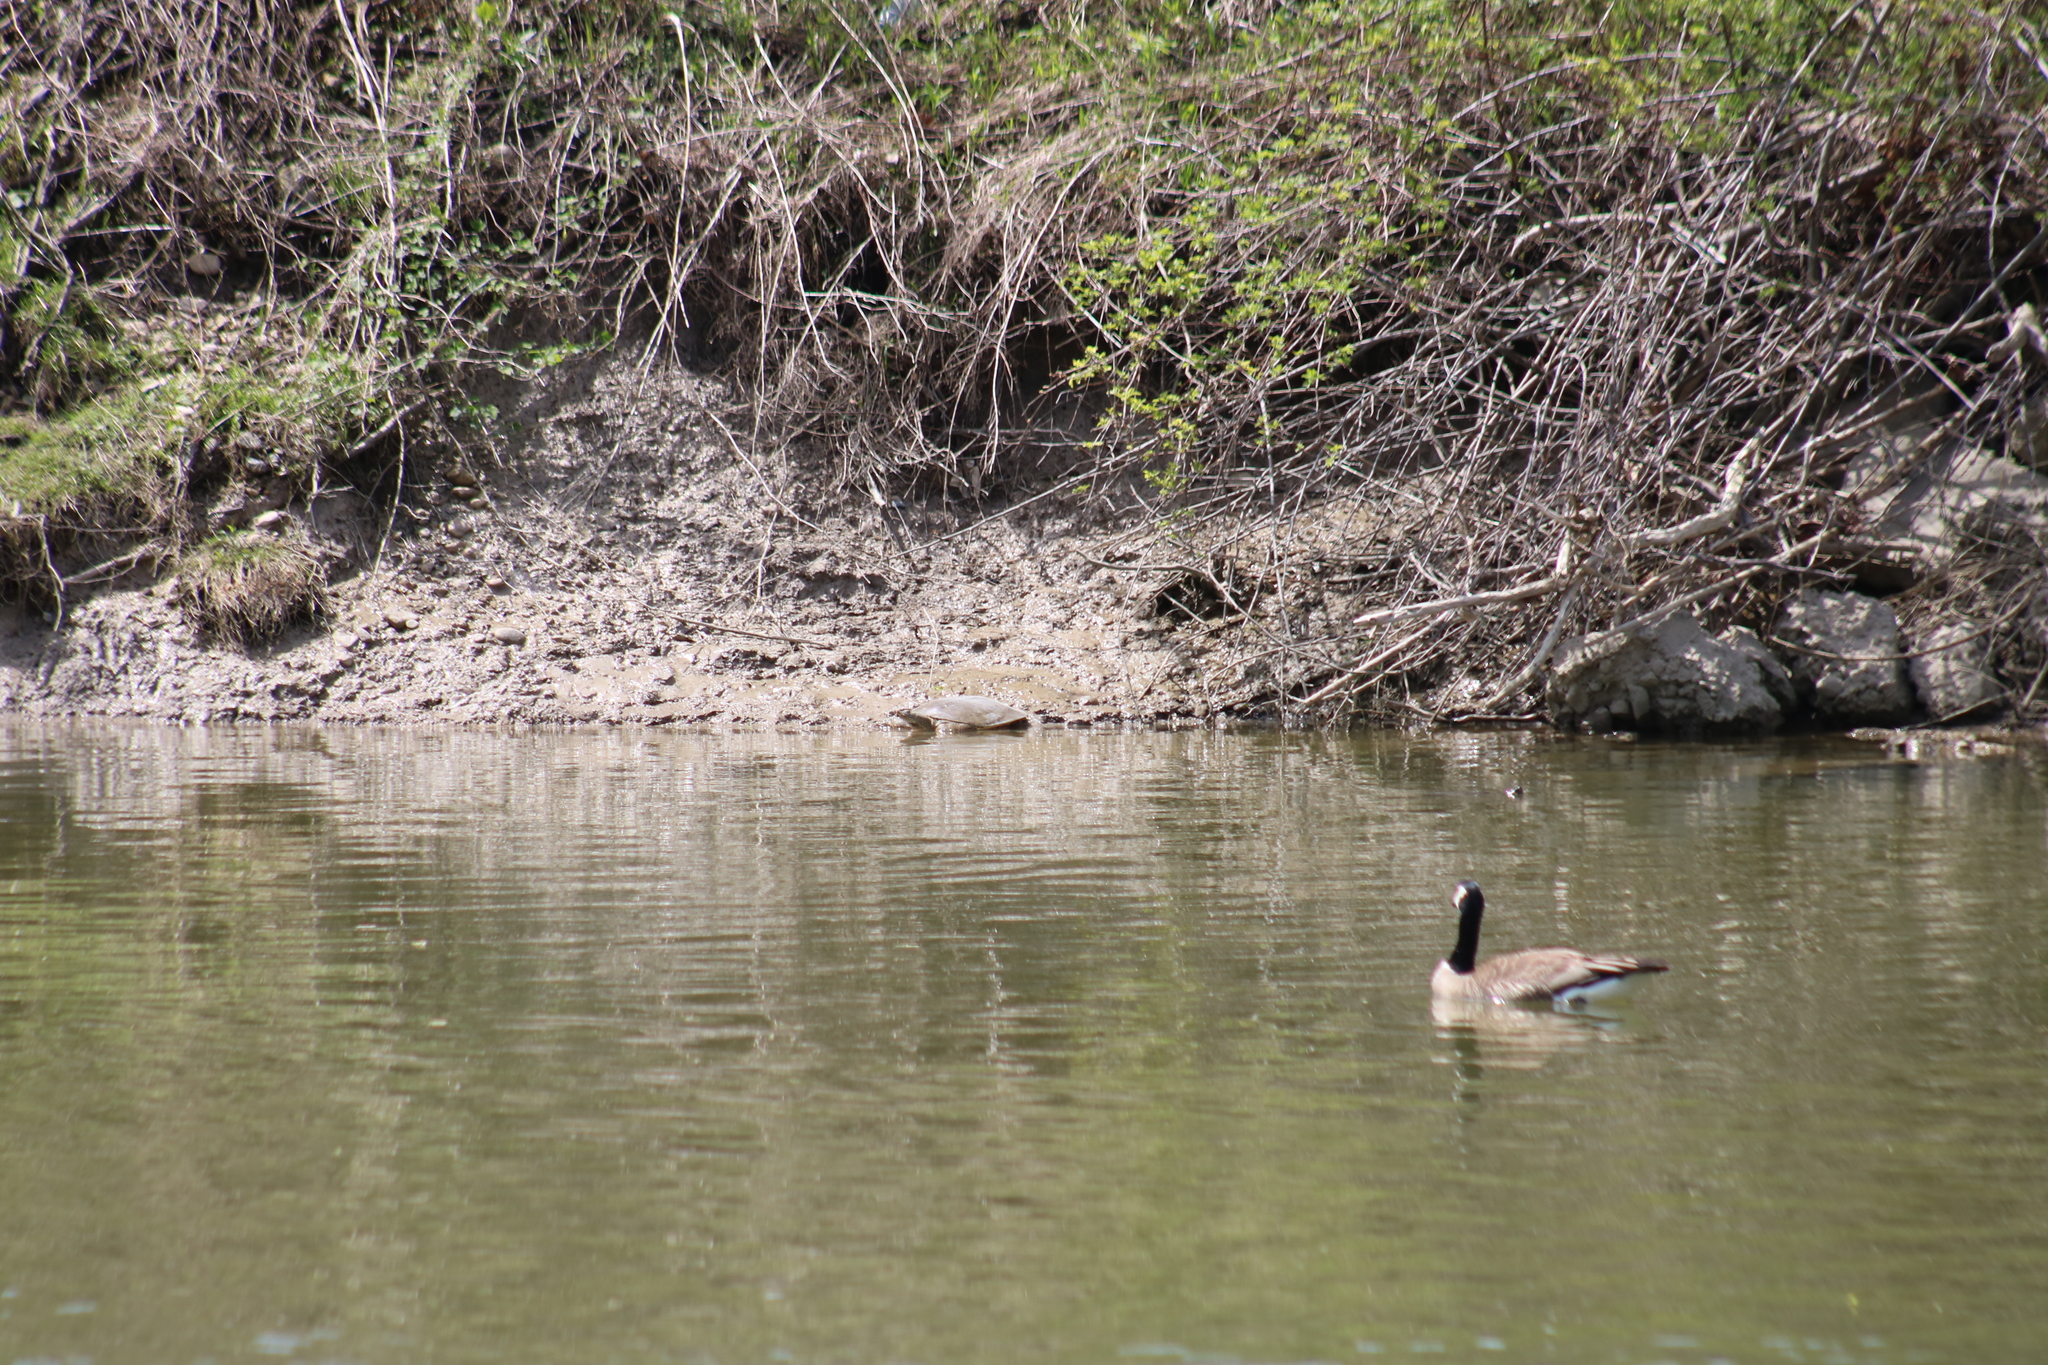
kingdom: Animalia
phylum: Chordata
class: Testudines
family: Trionychidae
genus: Apalone
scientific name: Apalone spinifera
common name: Spiny softshell turtle
